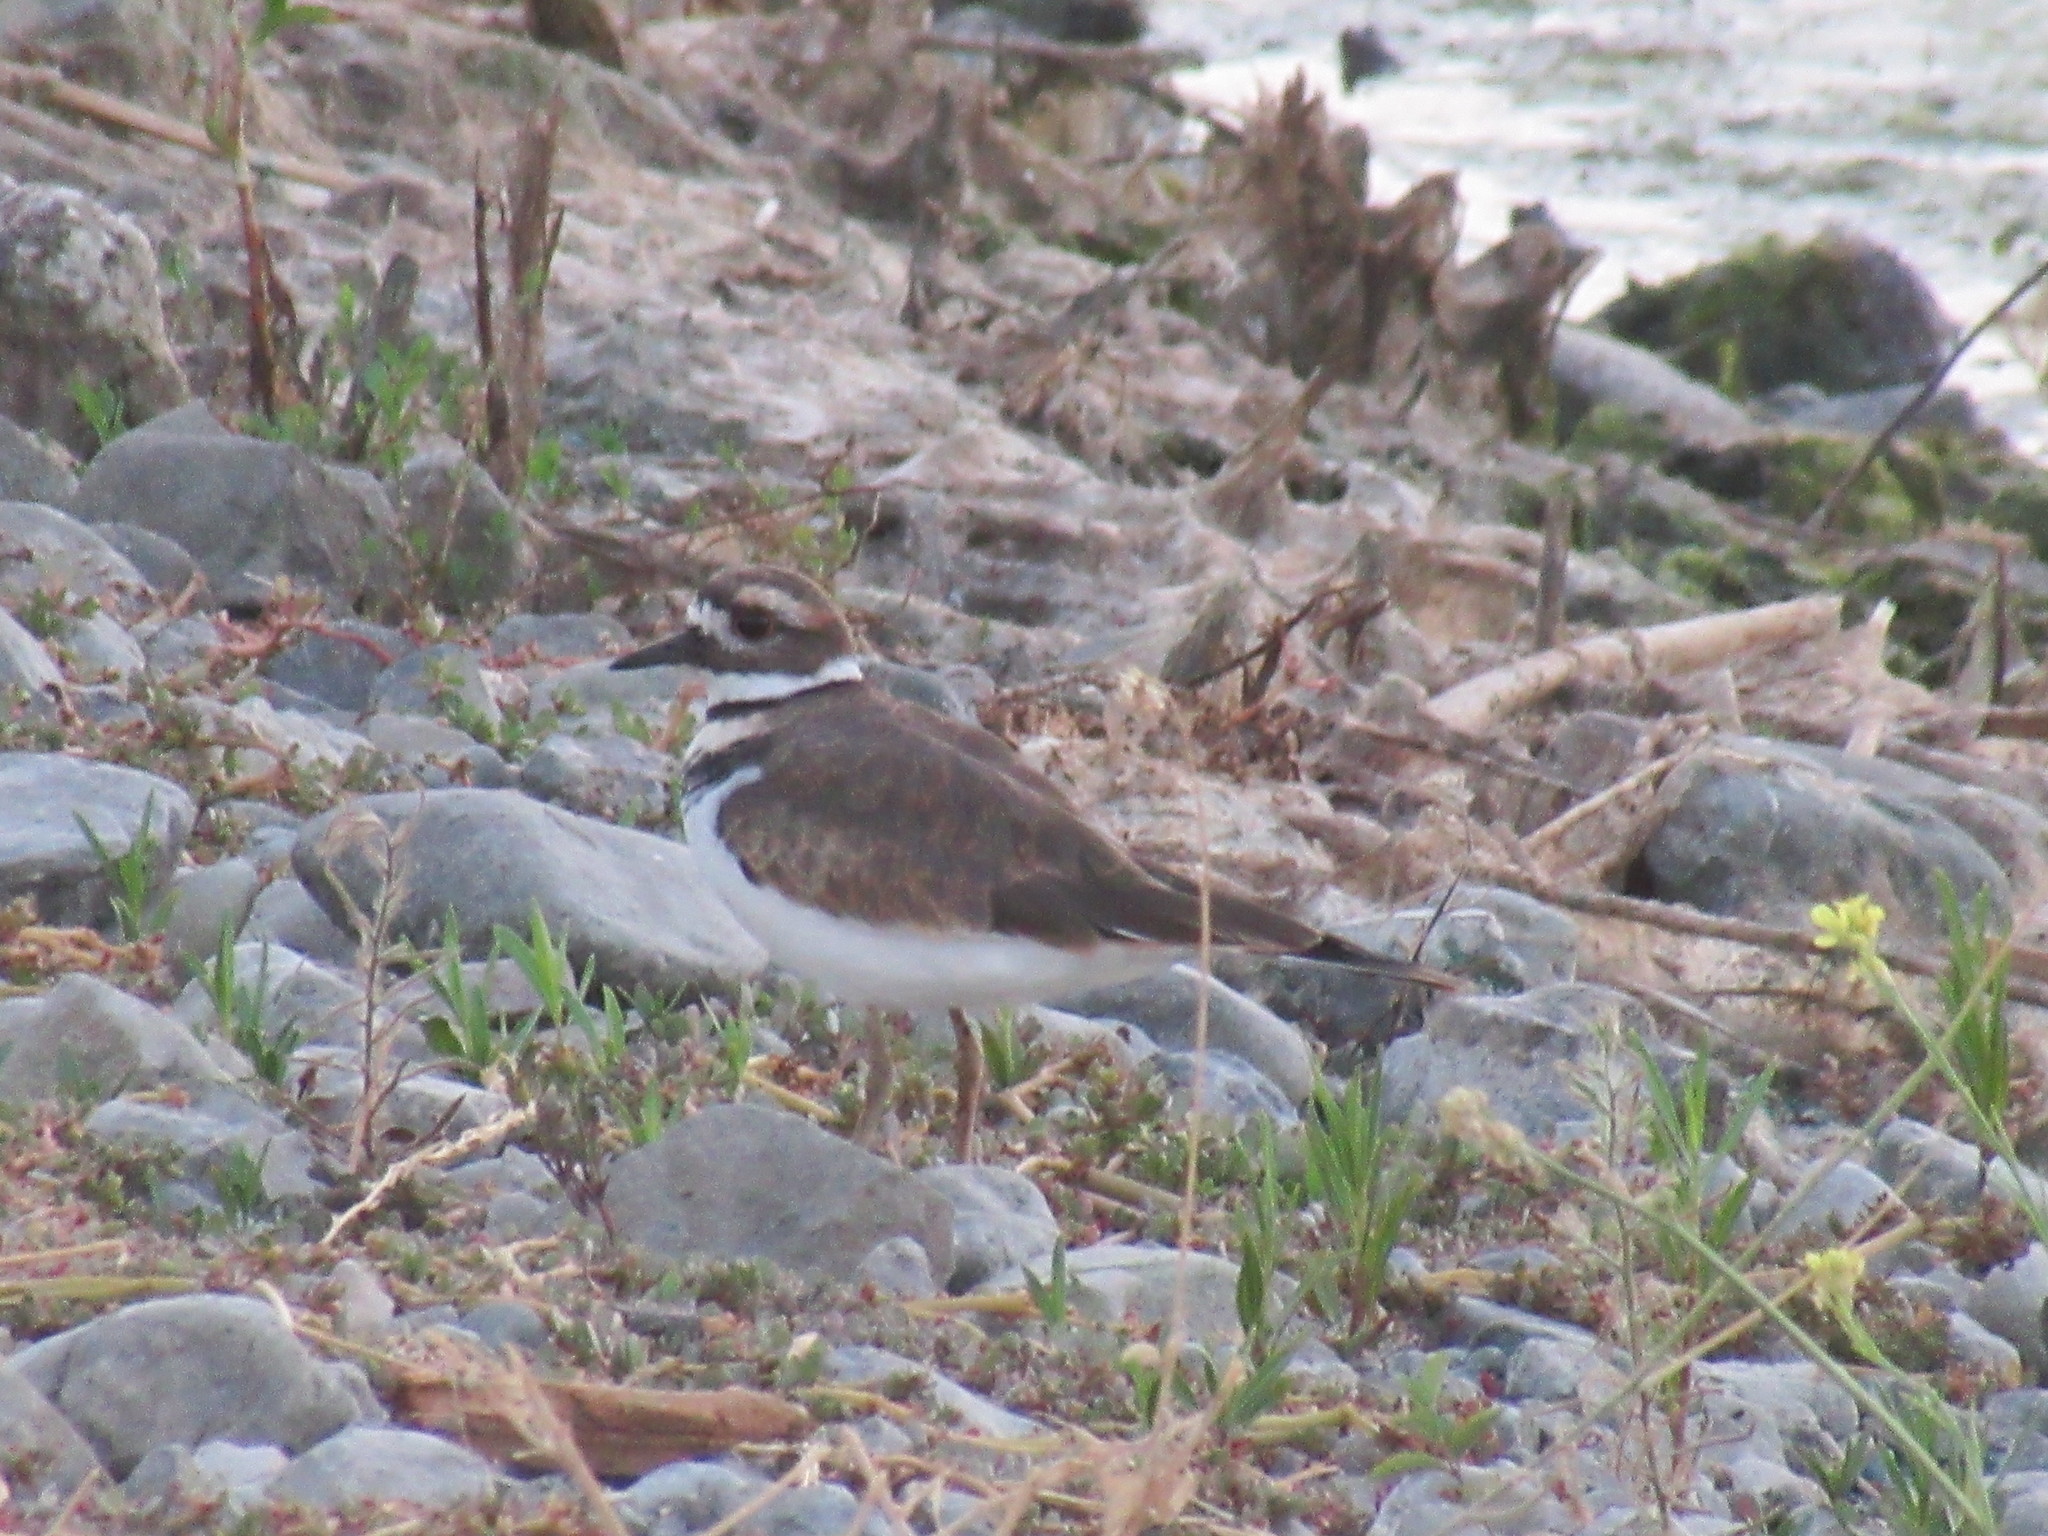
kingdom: Animalia
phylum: Chordata
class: Aves
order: Charadriiformes
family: Charadriidae
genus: Charadrius
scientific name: Charadrius vociferus
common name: Killdeer
